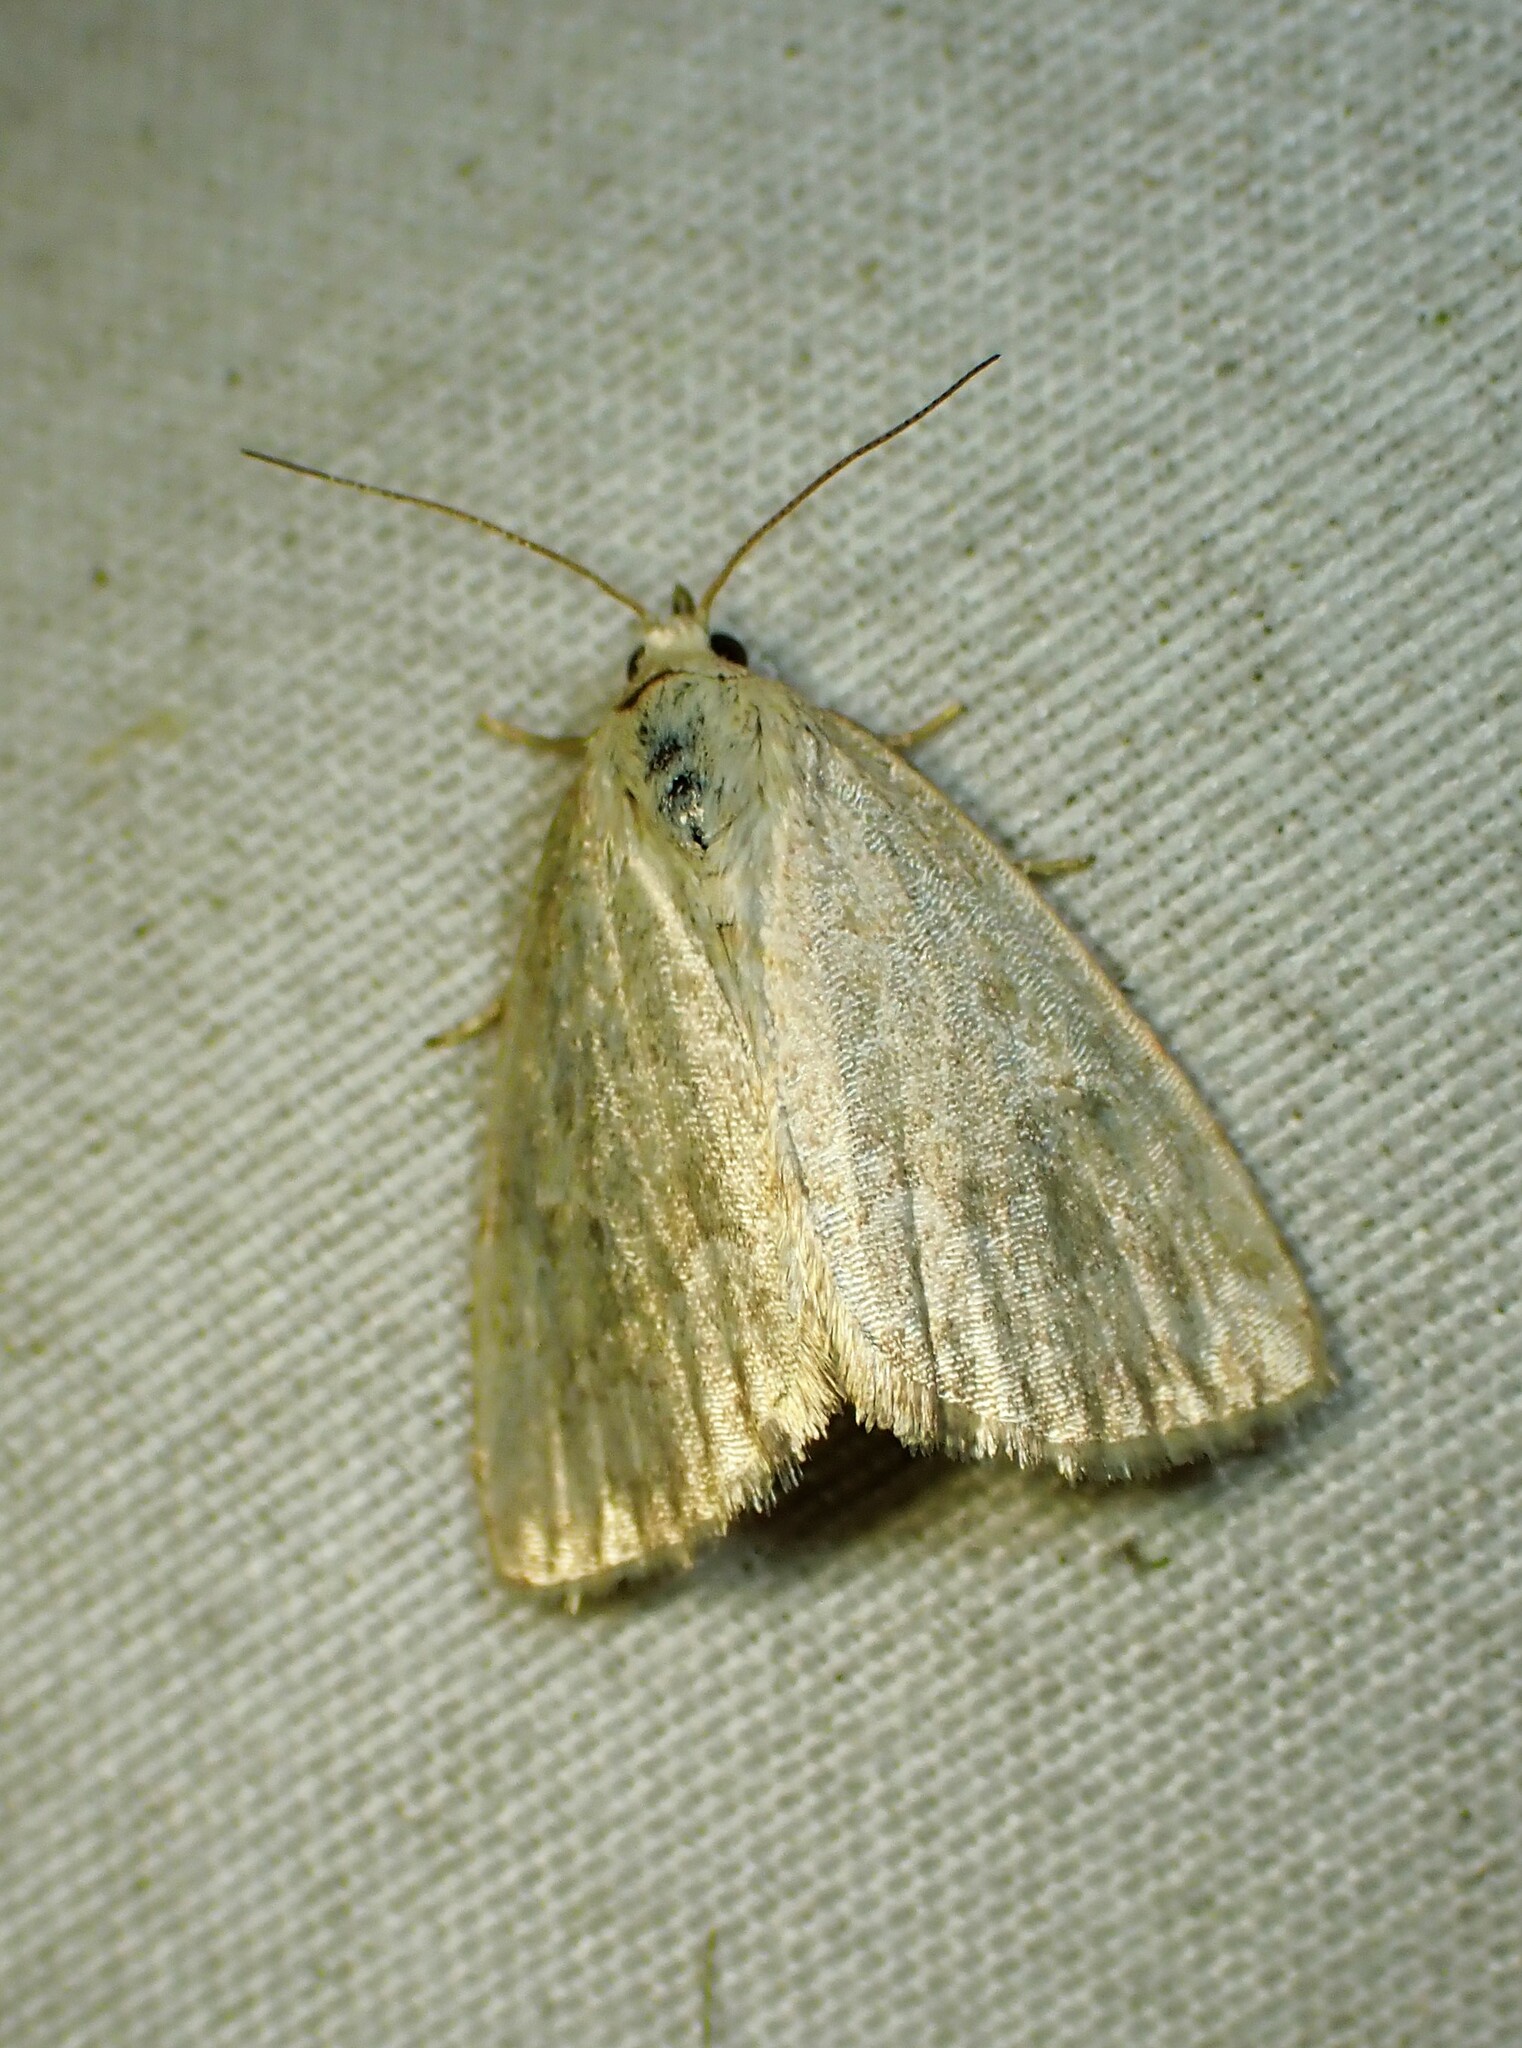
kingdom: Animalia
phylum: Arthropoda
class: Insecta
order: Lepidoptera
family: Noctuidae
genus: Protodeltote
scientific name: Protodeltote albidula
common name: Pale glyph
